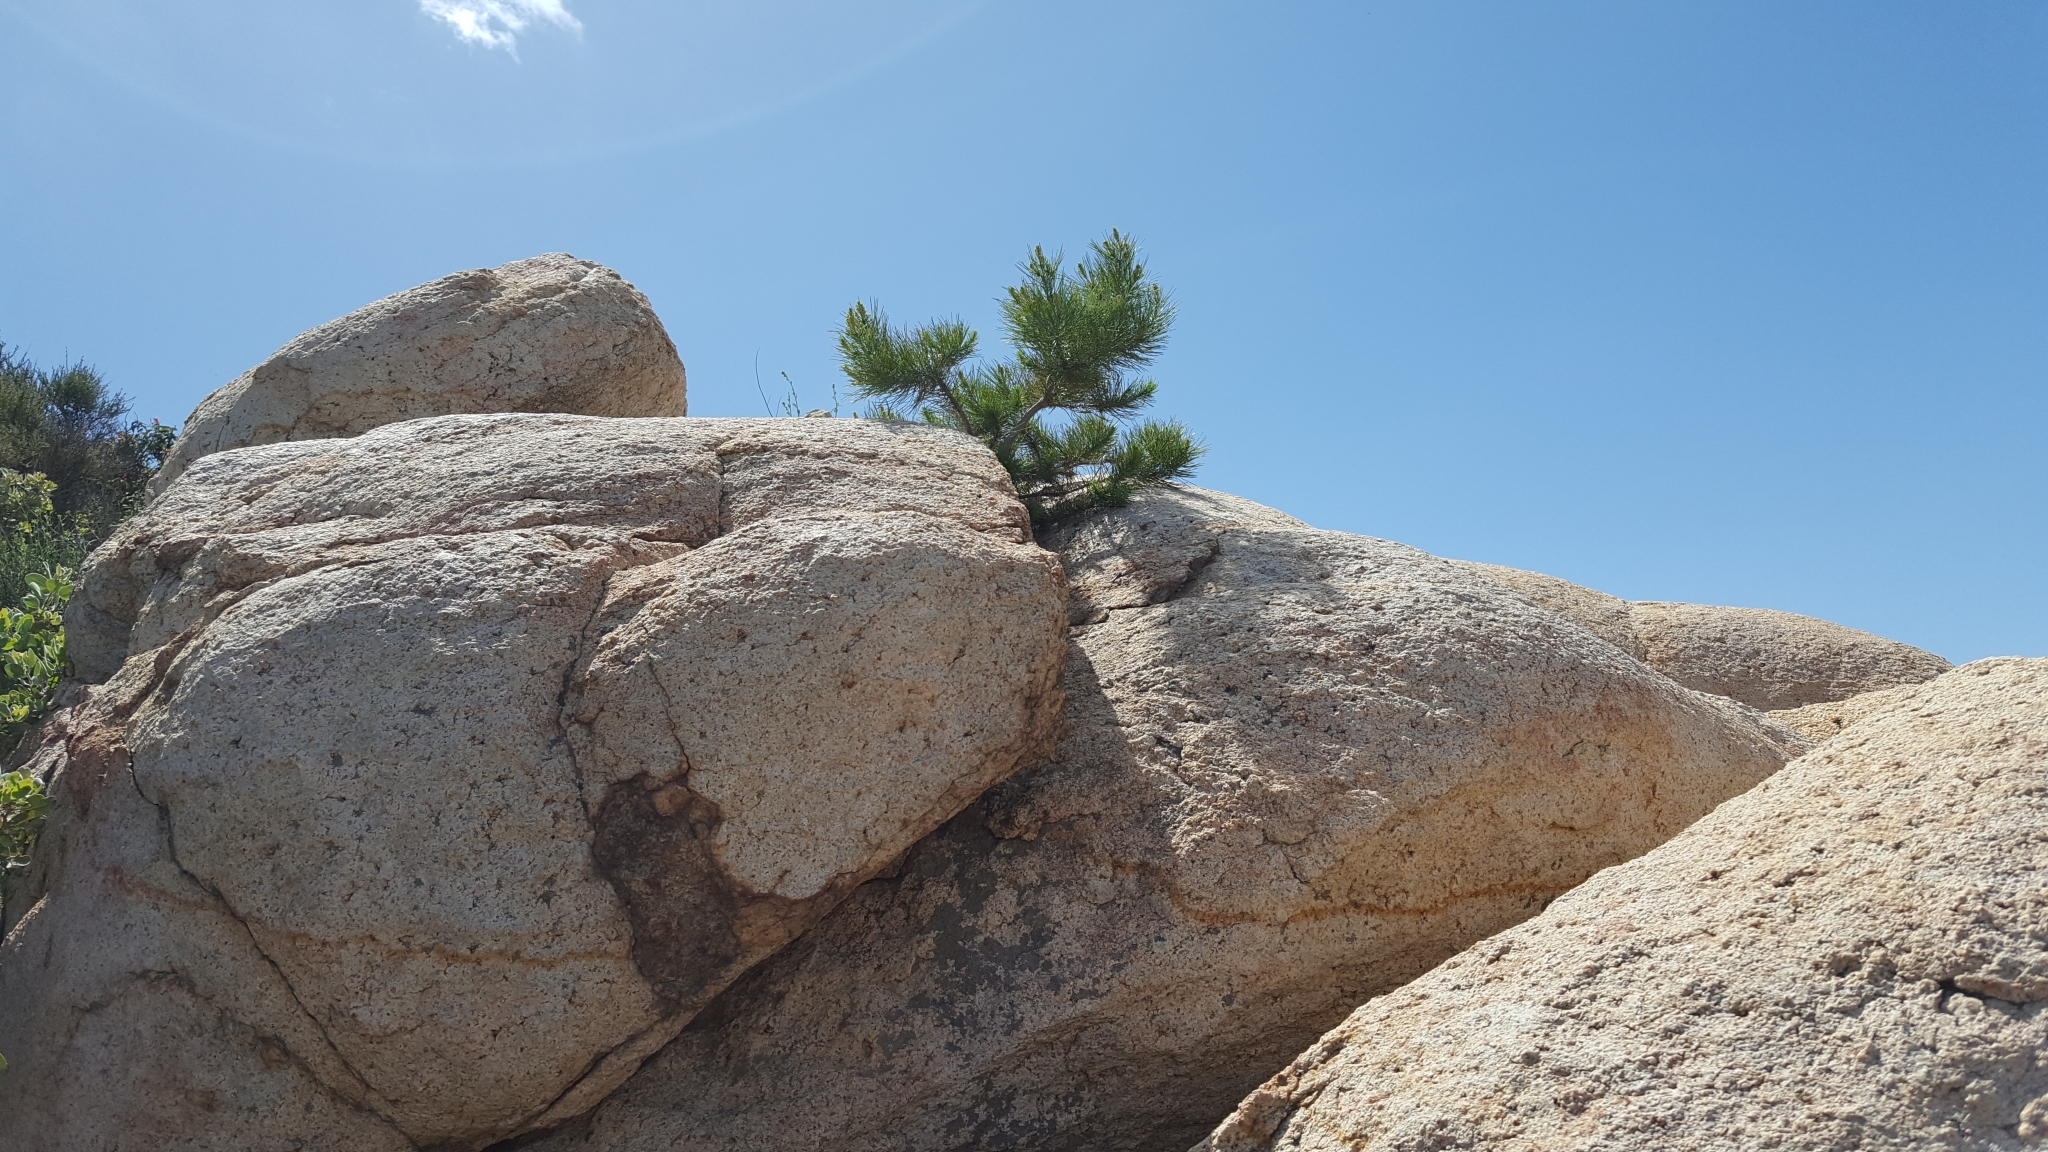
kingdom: Plantae
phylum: Tracheophyta
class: Pinopsida
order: Pinales
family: Pinaceae
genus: Pinus
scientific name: Pinus halepensis
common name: Aleppo pine
